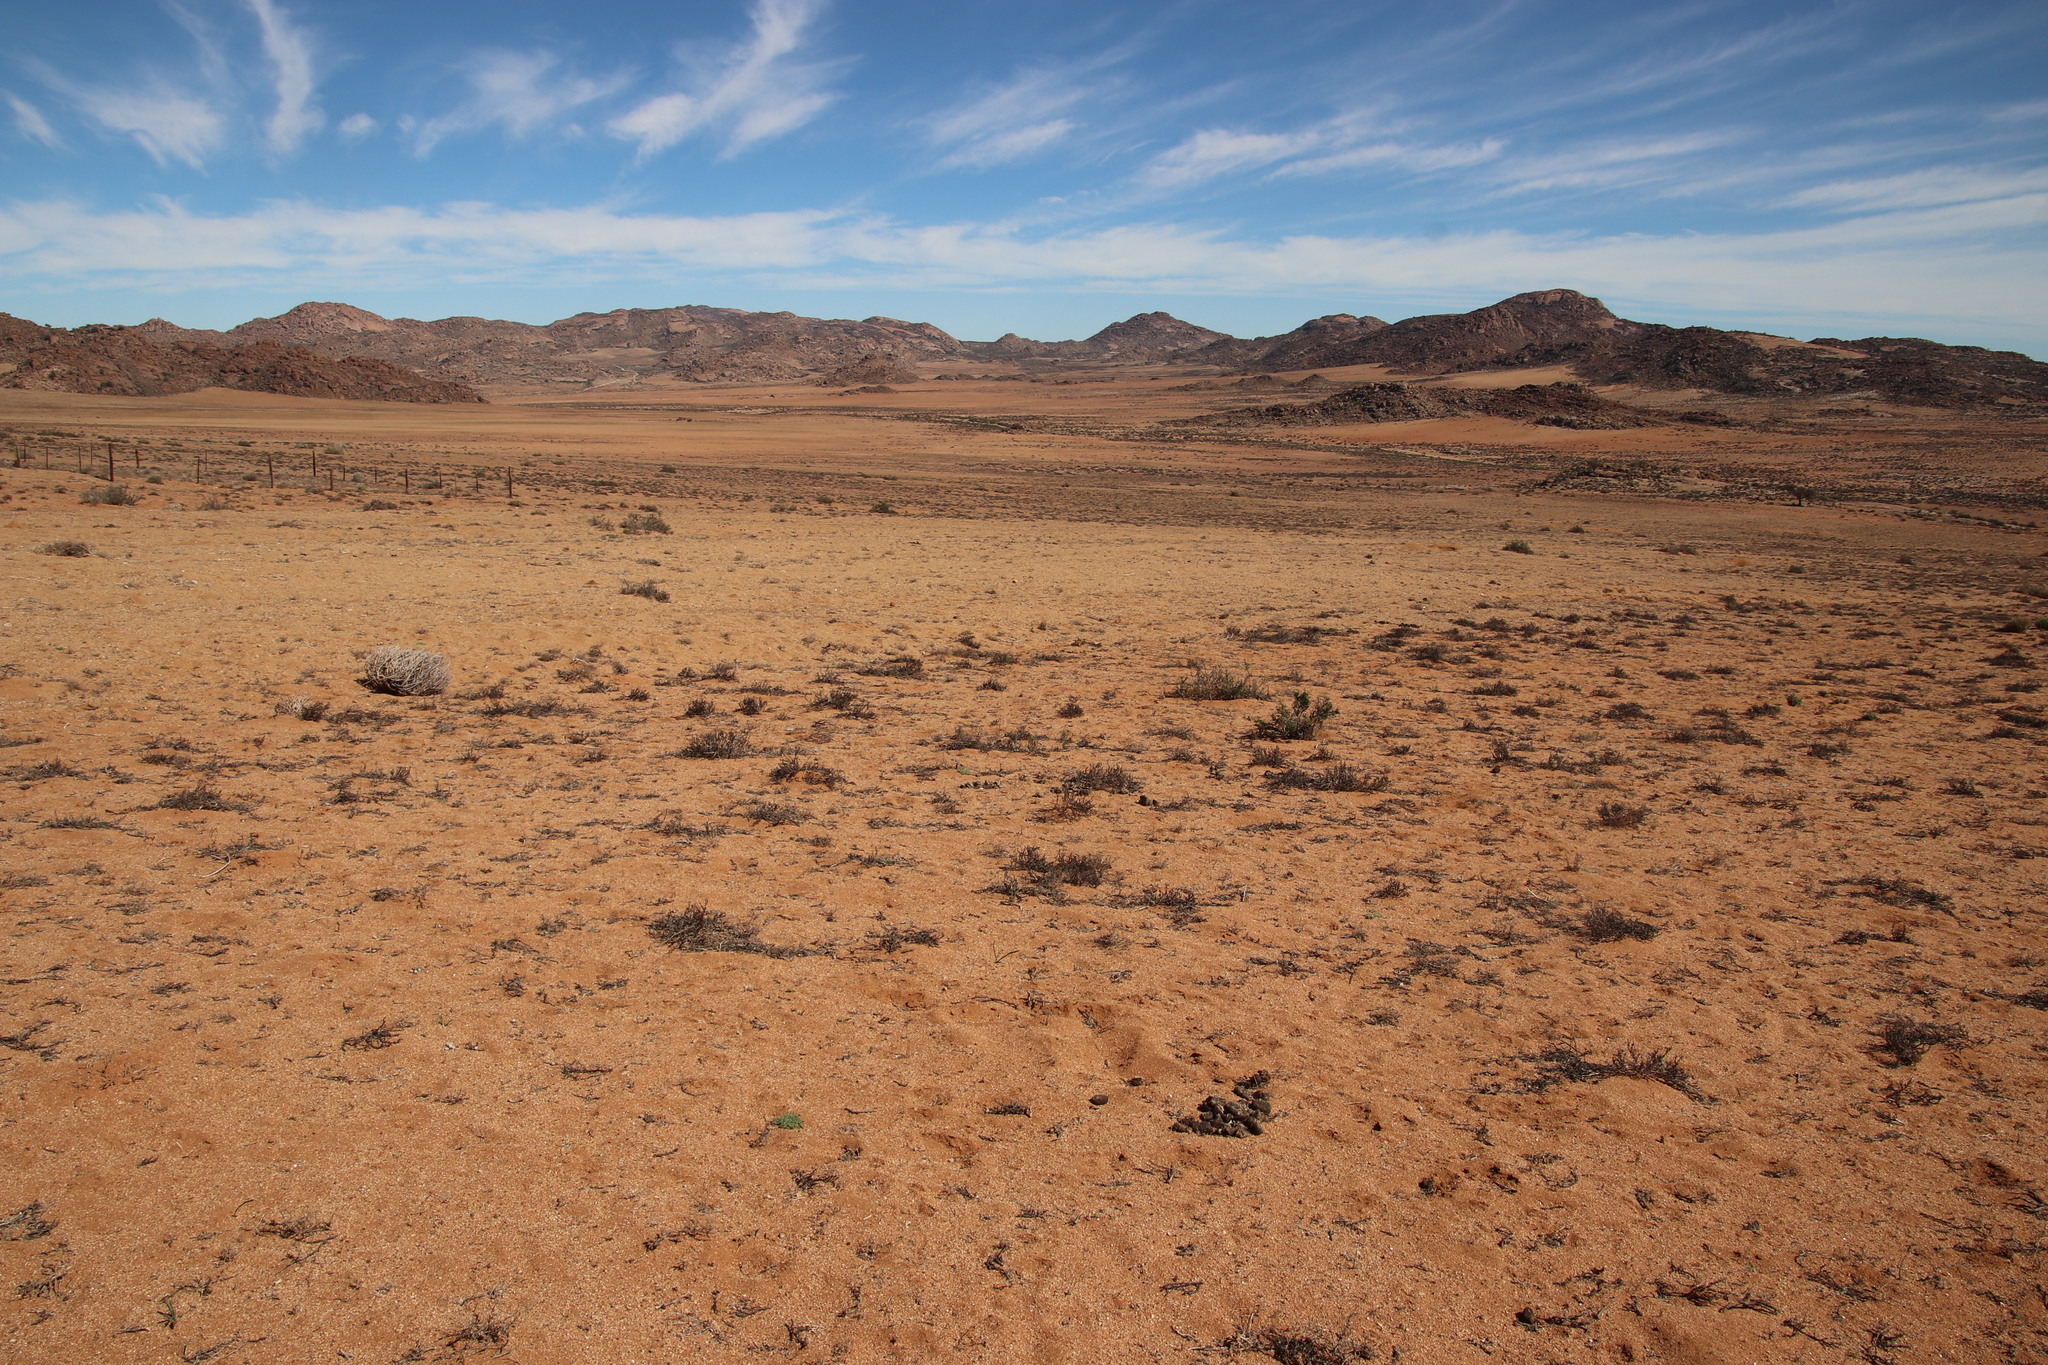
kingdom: Animalia
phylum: Chordata
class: Mammalia
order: Perissodactyla
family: Equidae
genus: Equus
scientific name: Equus hartmannae
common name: Hartmann's mountain zebra
